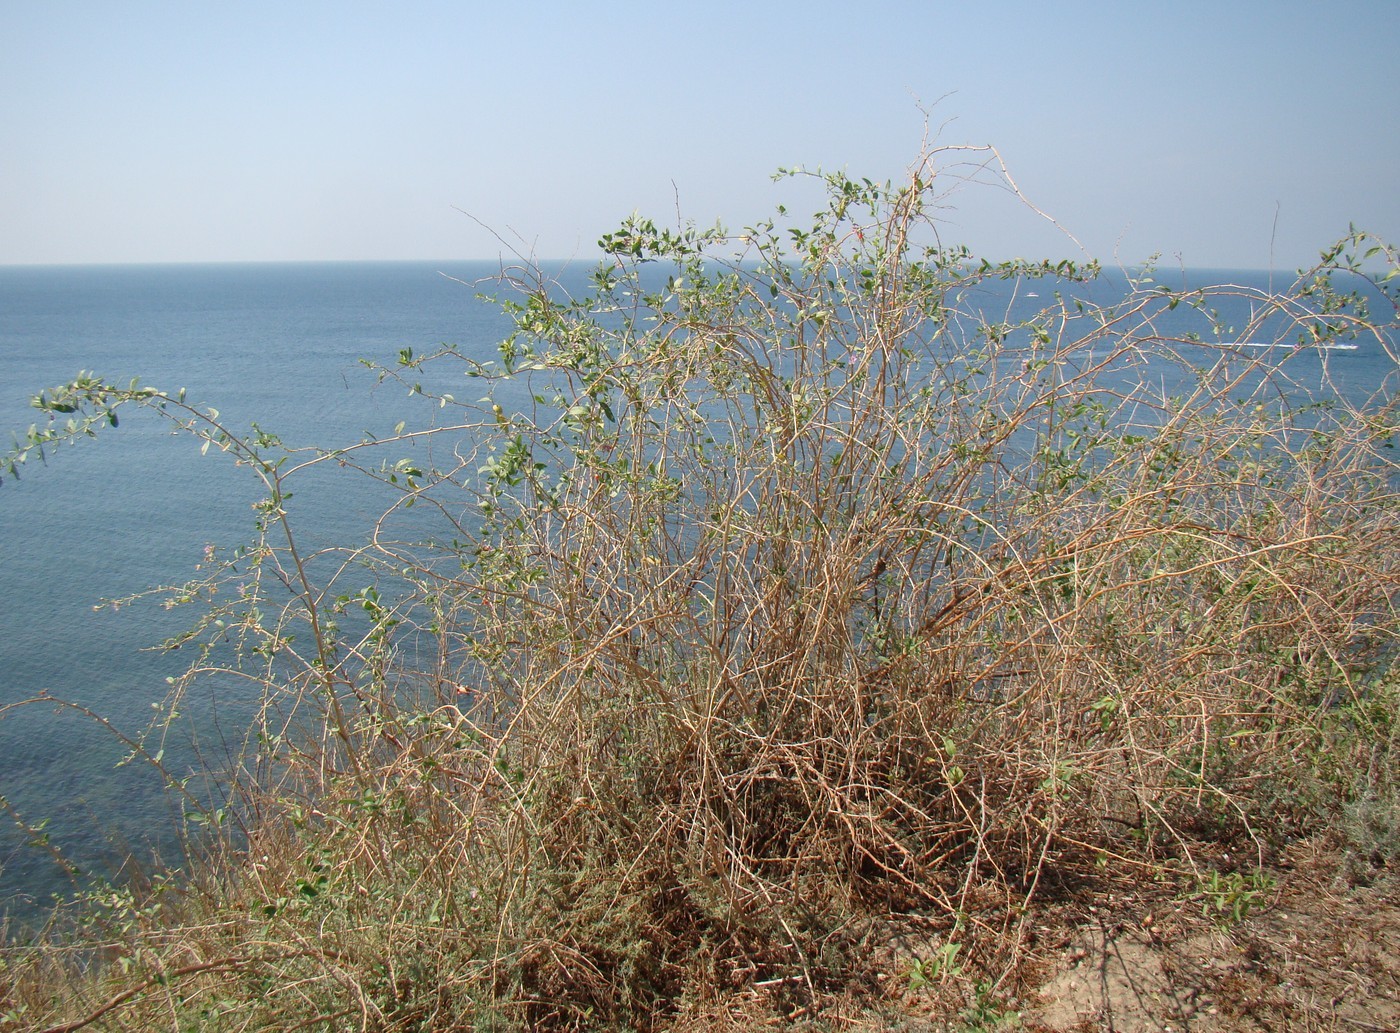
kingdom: Plantae
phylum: Tracheophyta
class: Magnoliopsida
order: Solanales
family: Solanaceae
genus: Lycium
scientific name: Lycium barbarum
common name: Duke of argyll's teaplant
